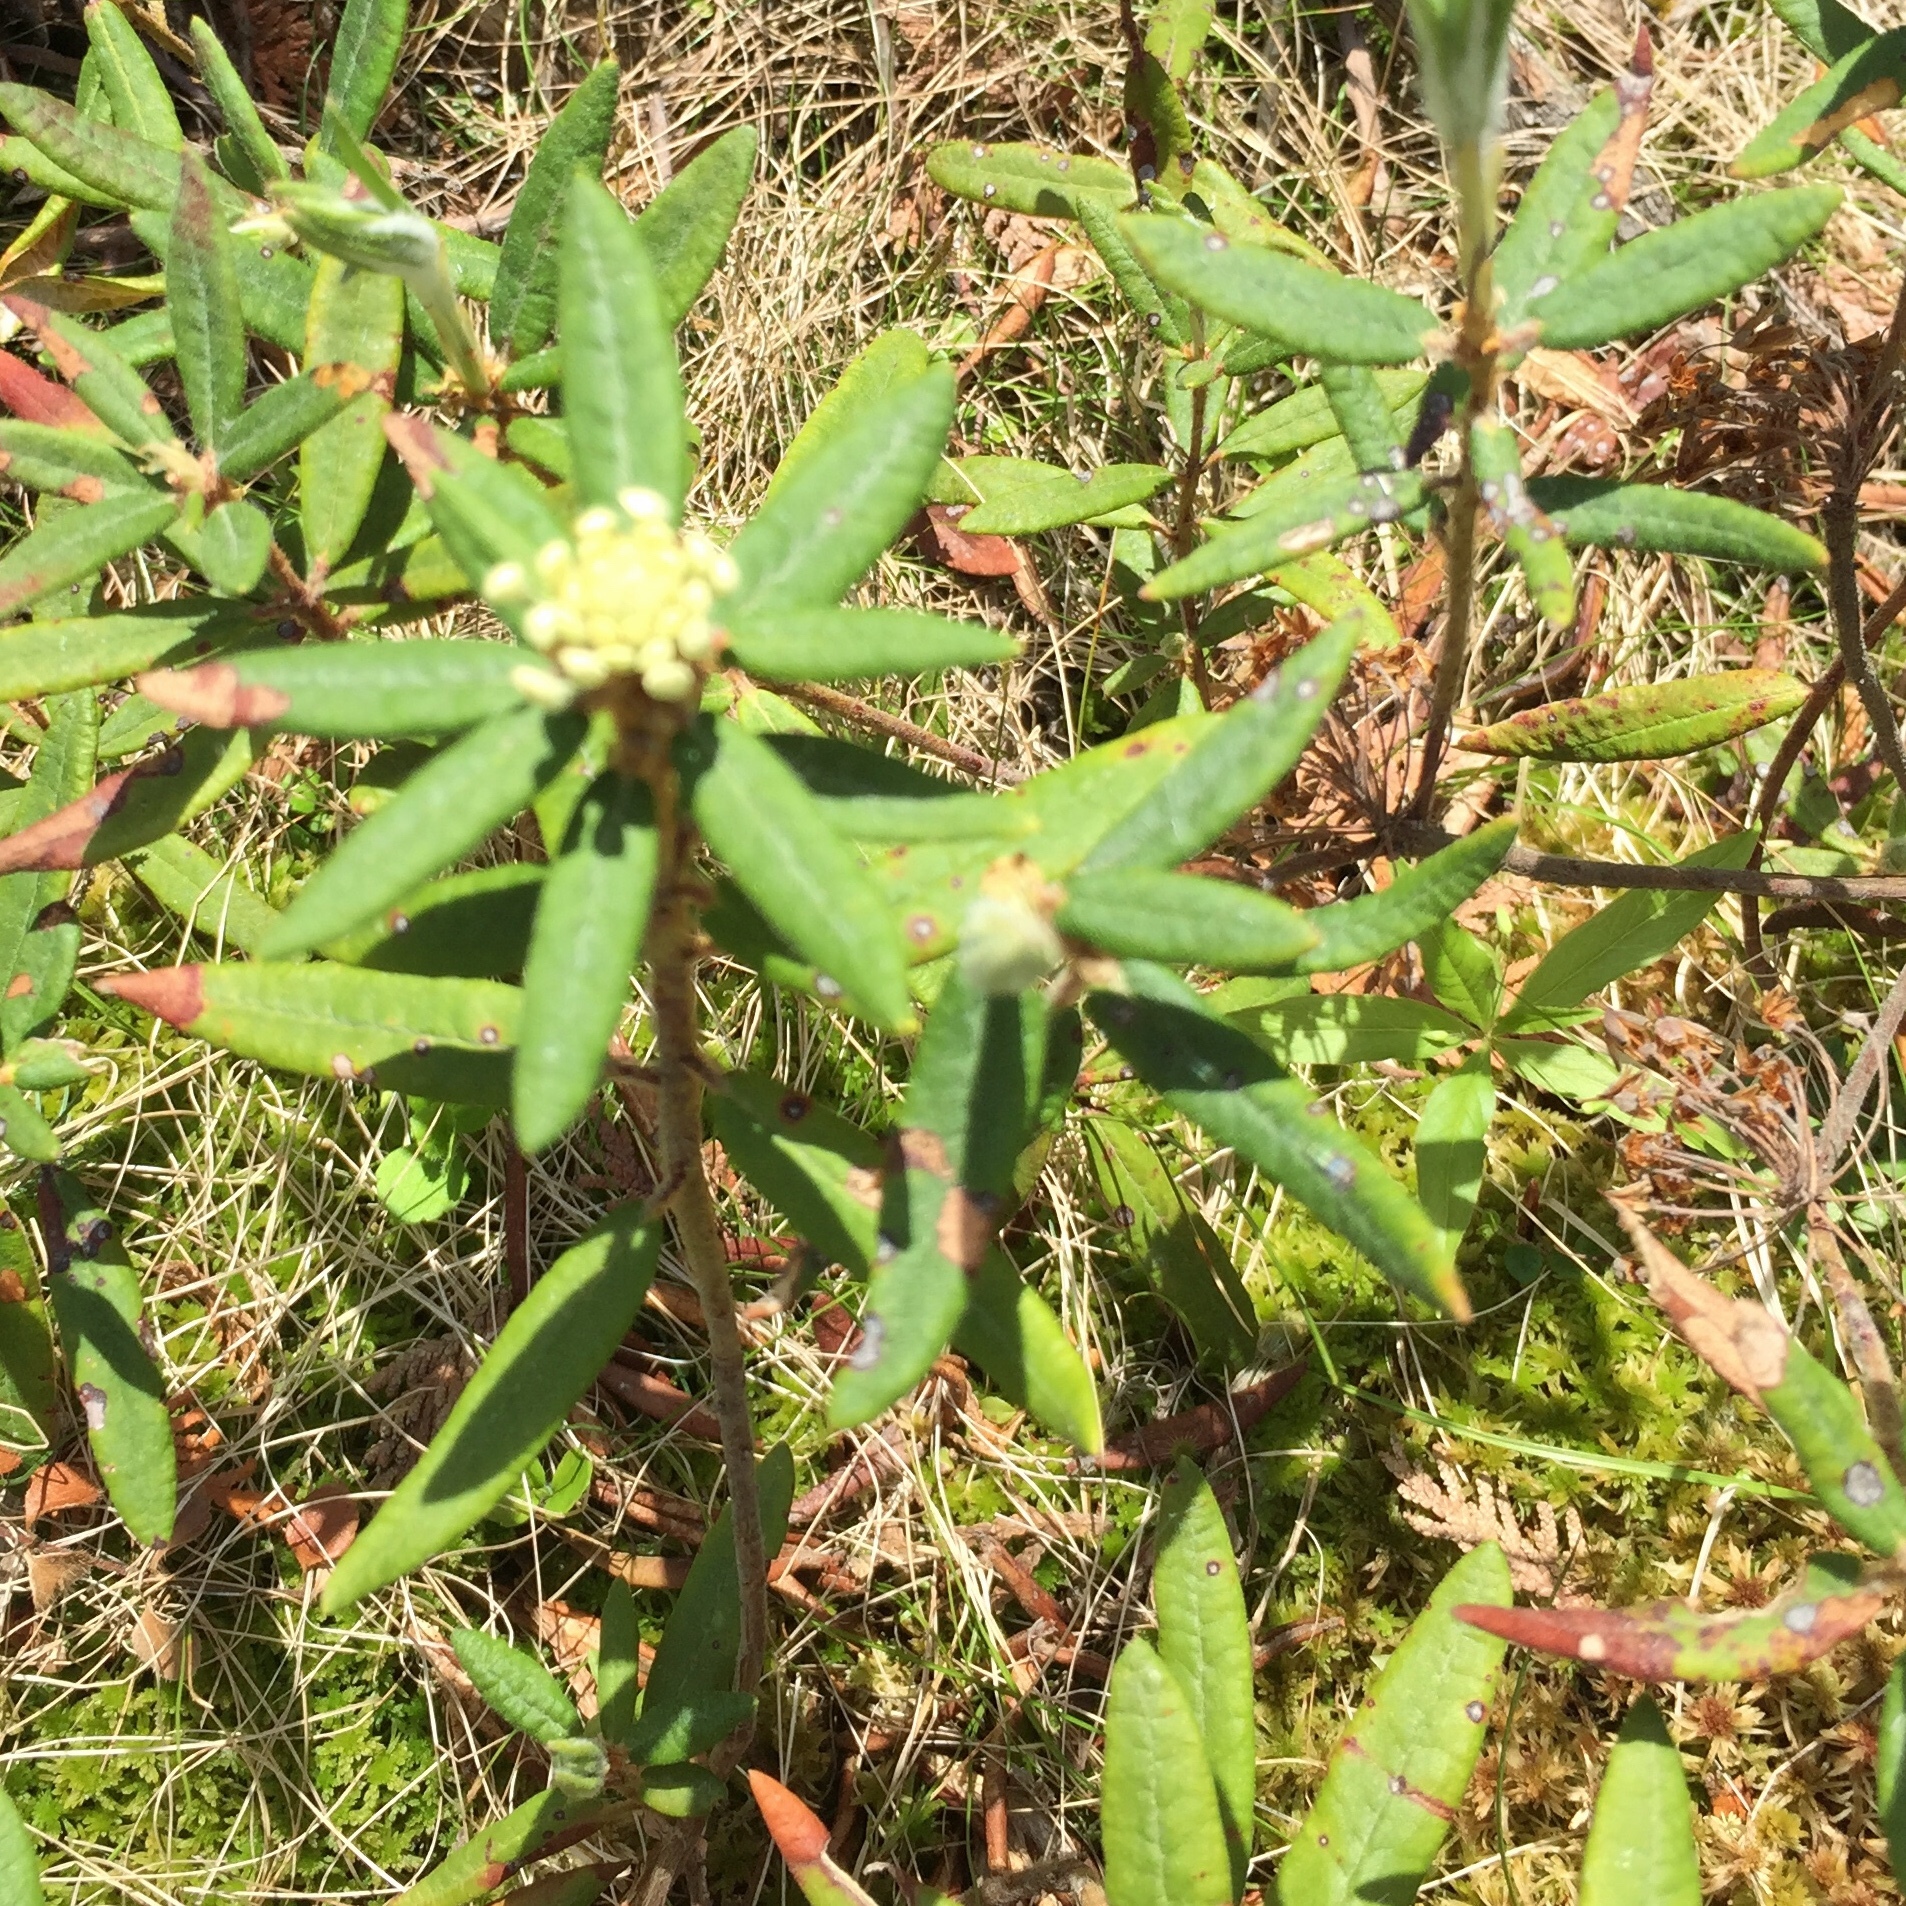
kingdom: Plantae
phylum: Tracheophyta
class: Magnoliopsida
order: Ericales
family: Ericaceae
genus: Rhododendron
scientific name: Rhododendron groenlandicum
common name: Bog labrador tea
